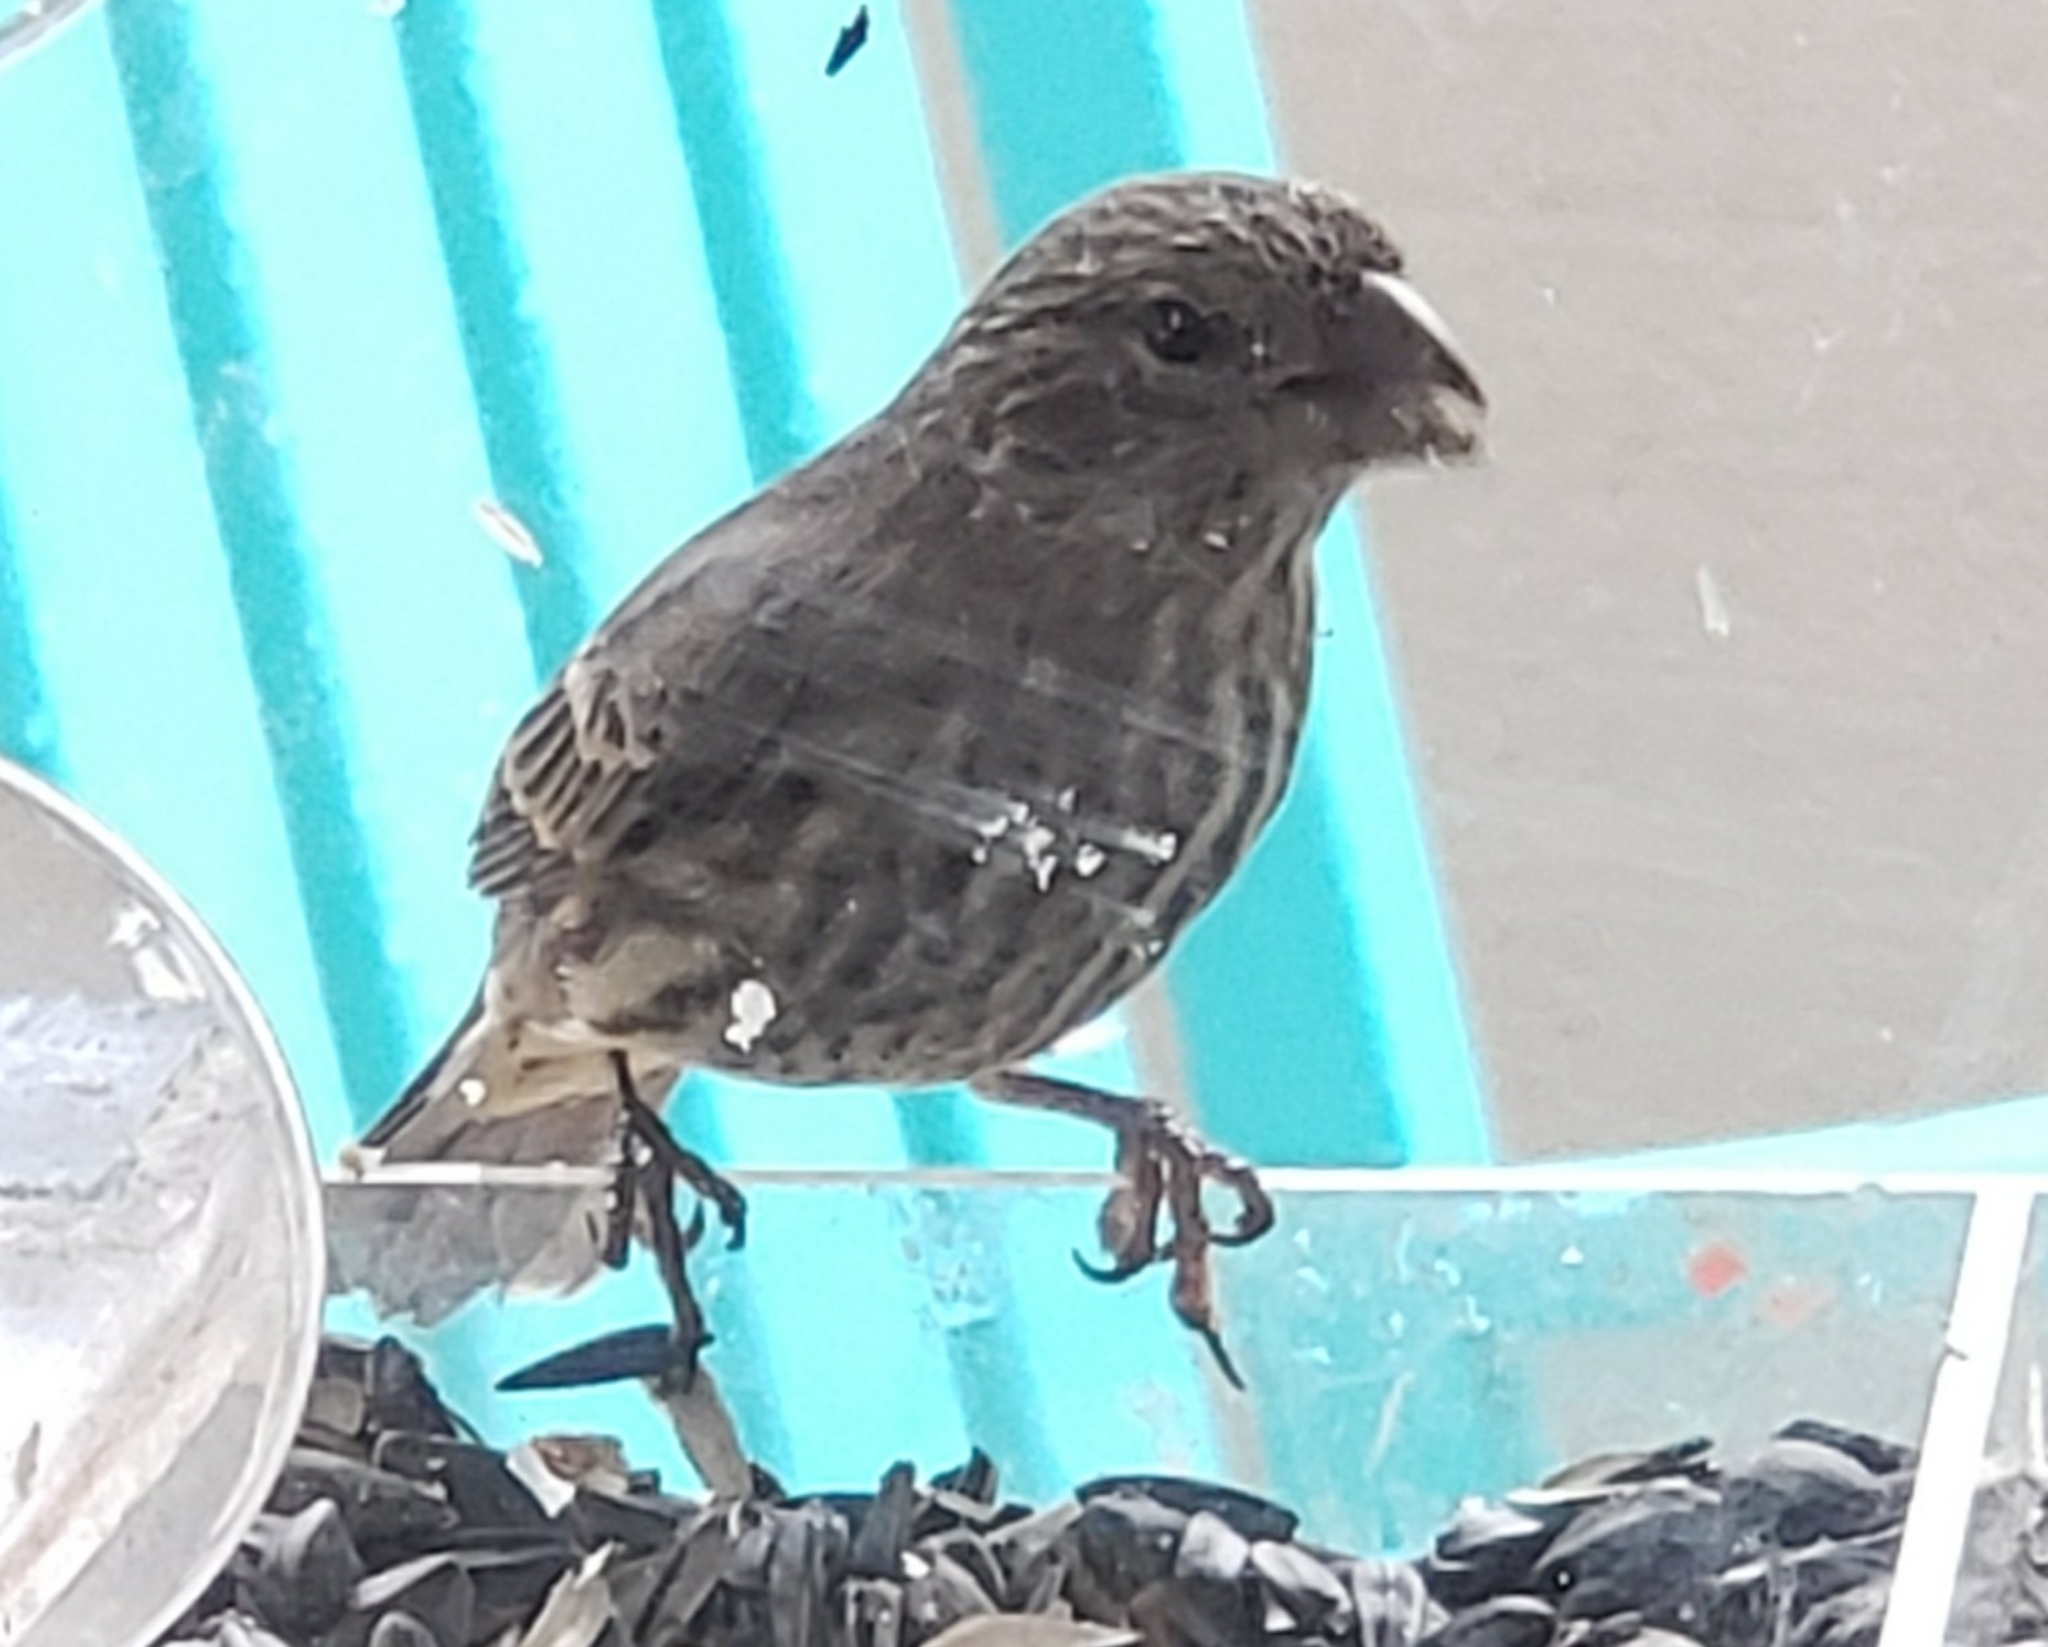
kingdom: Animalia
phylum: Chordata
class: Aves
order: Passeriformes
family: Fringillidae
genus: Haemorhous
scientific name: Haemorhous mexicanus
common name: House finch
